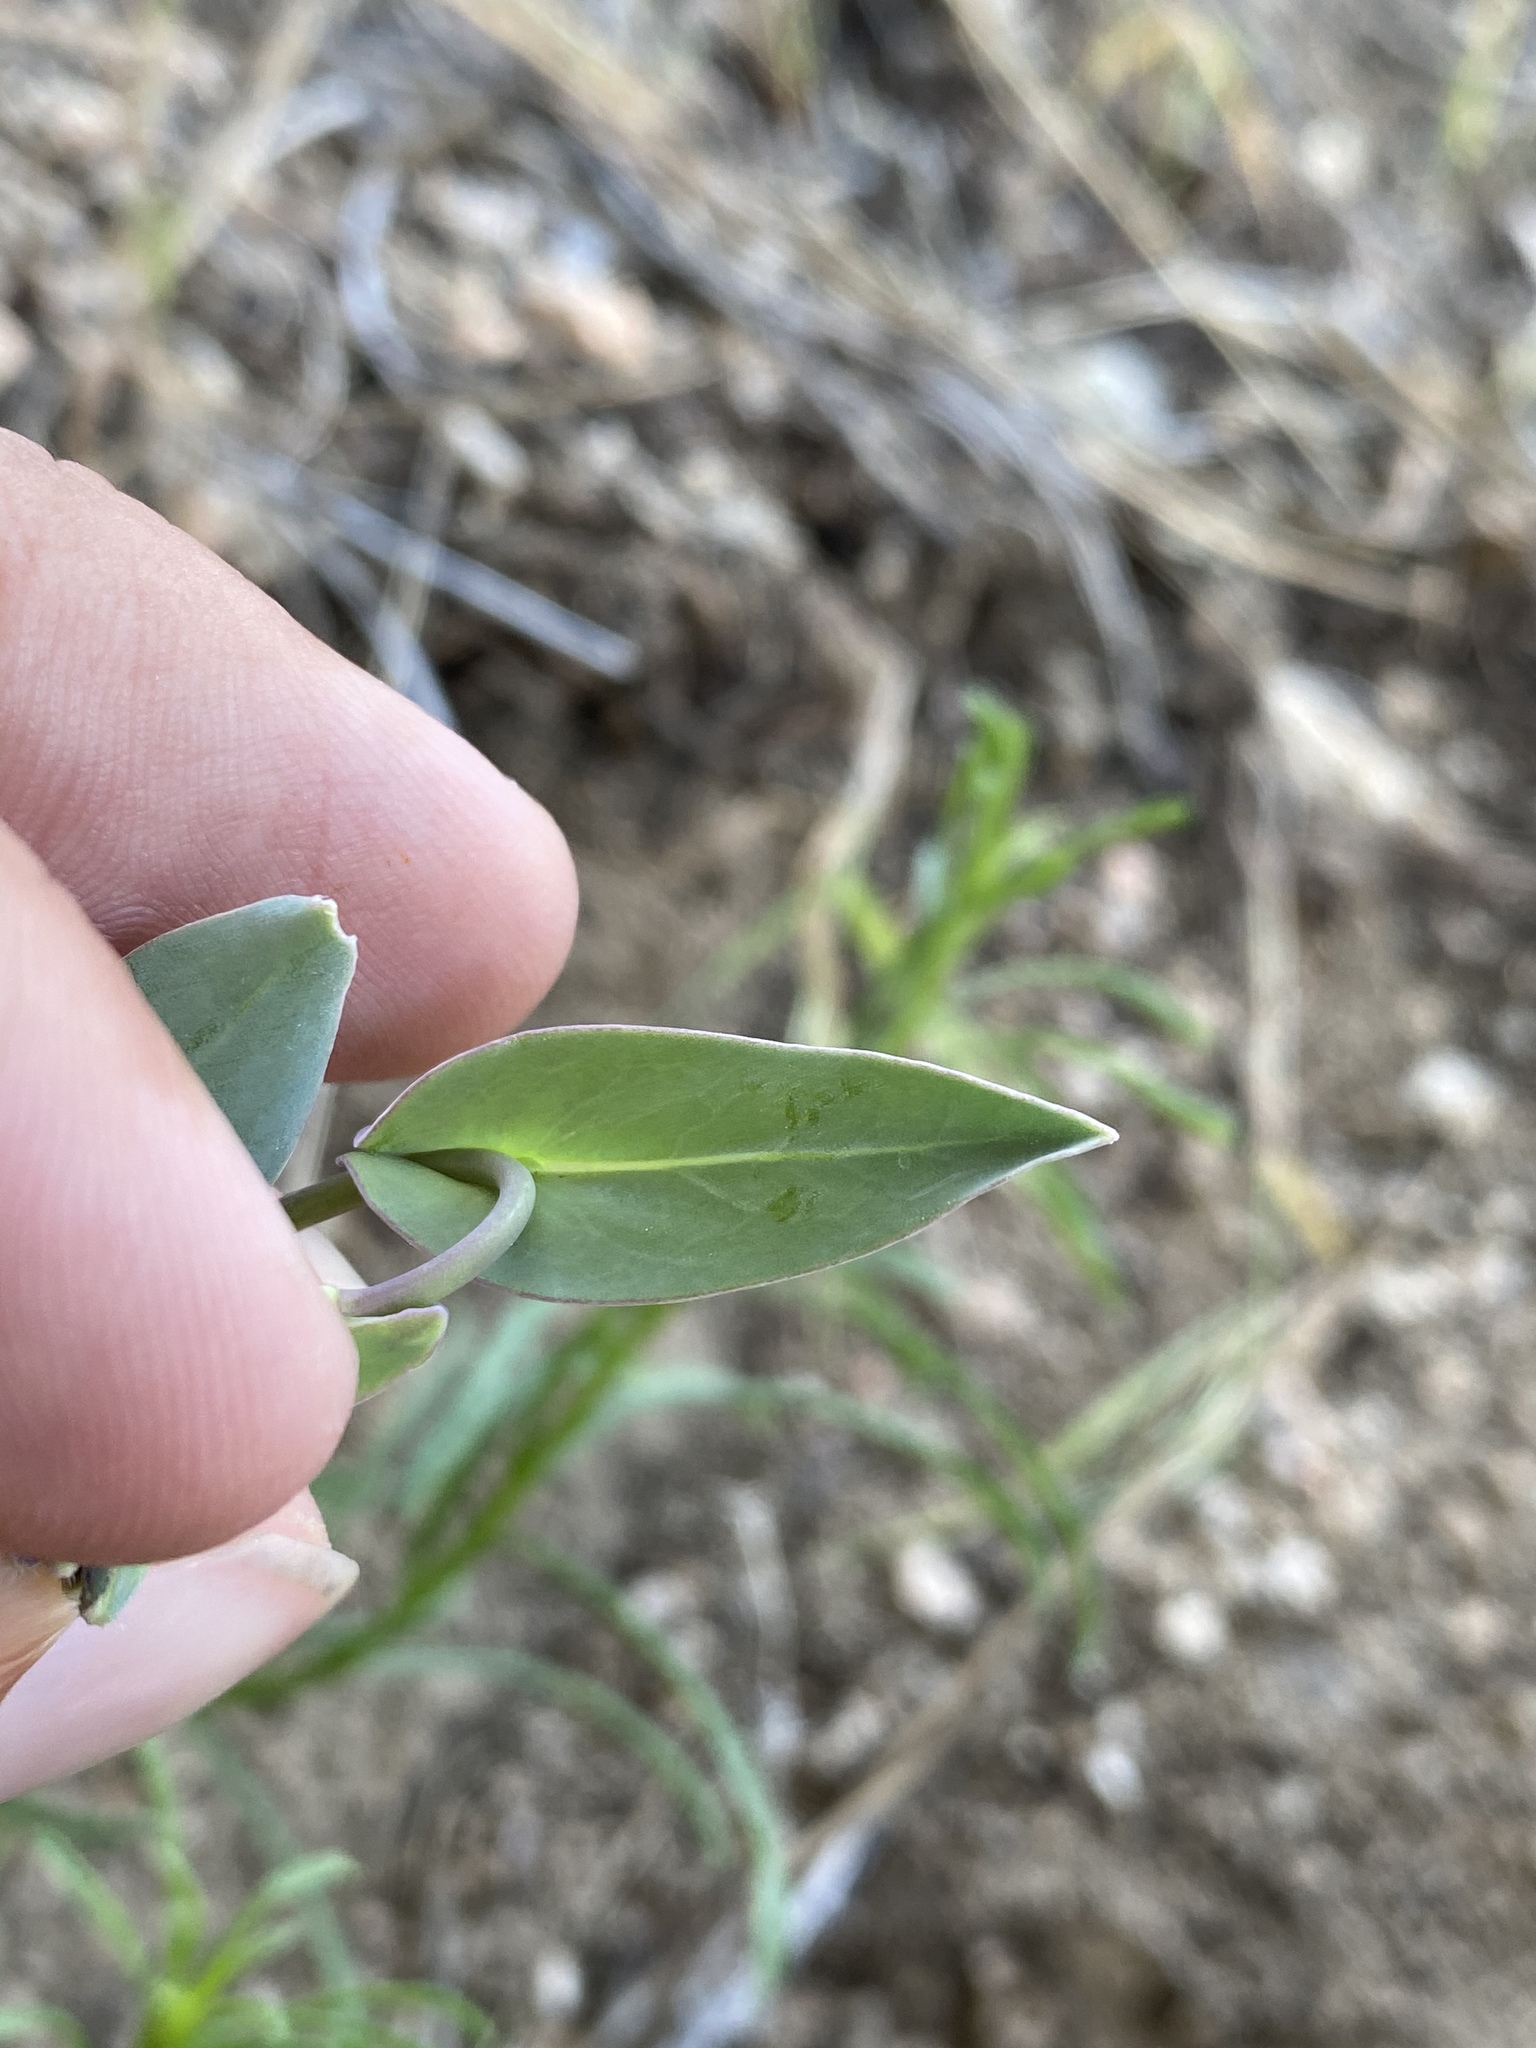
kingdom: Plantae
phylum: Tracheophyta
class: Magnoliopsida
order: Brassicales
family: Brassicaceae
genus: Streptanthus
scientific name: Streptanthus cordatus
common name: Heart-leaf jewel-flower
